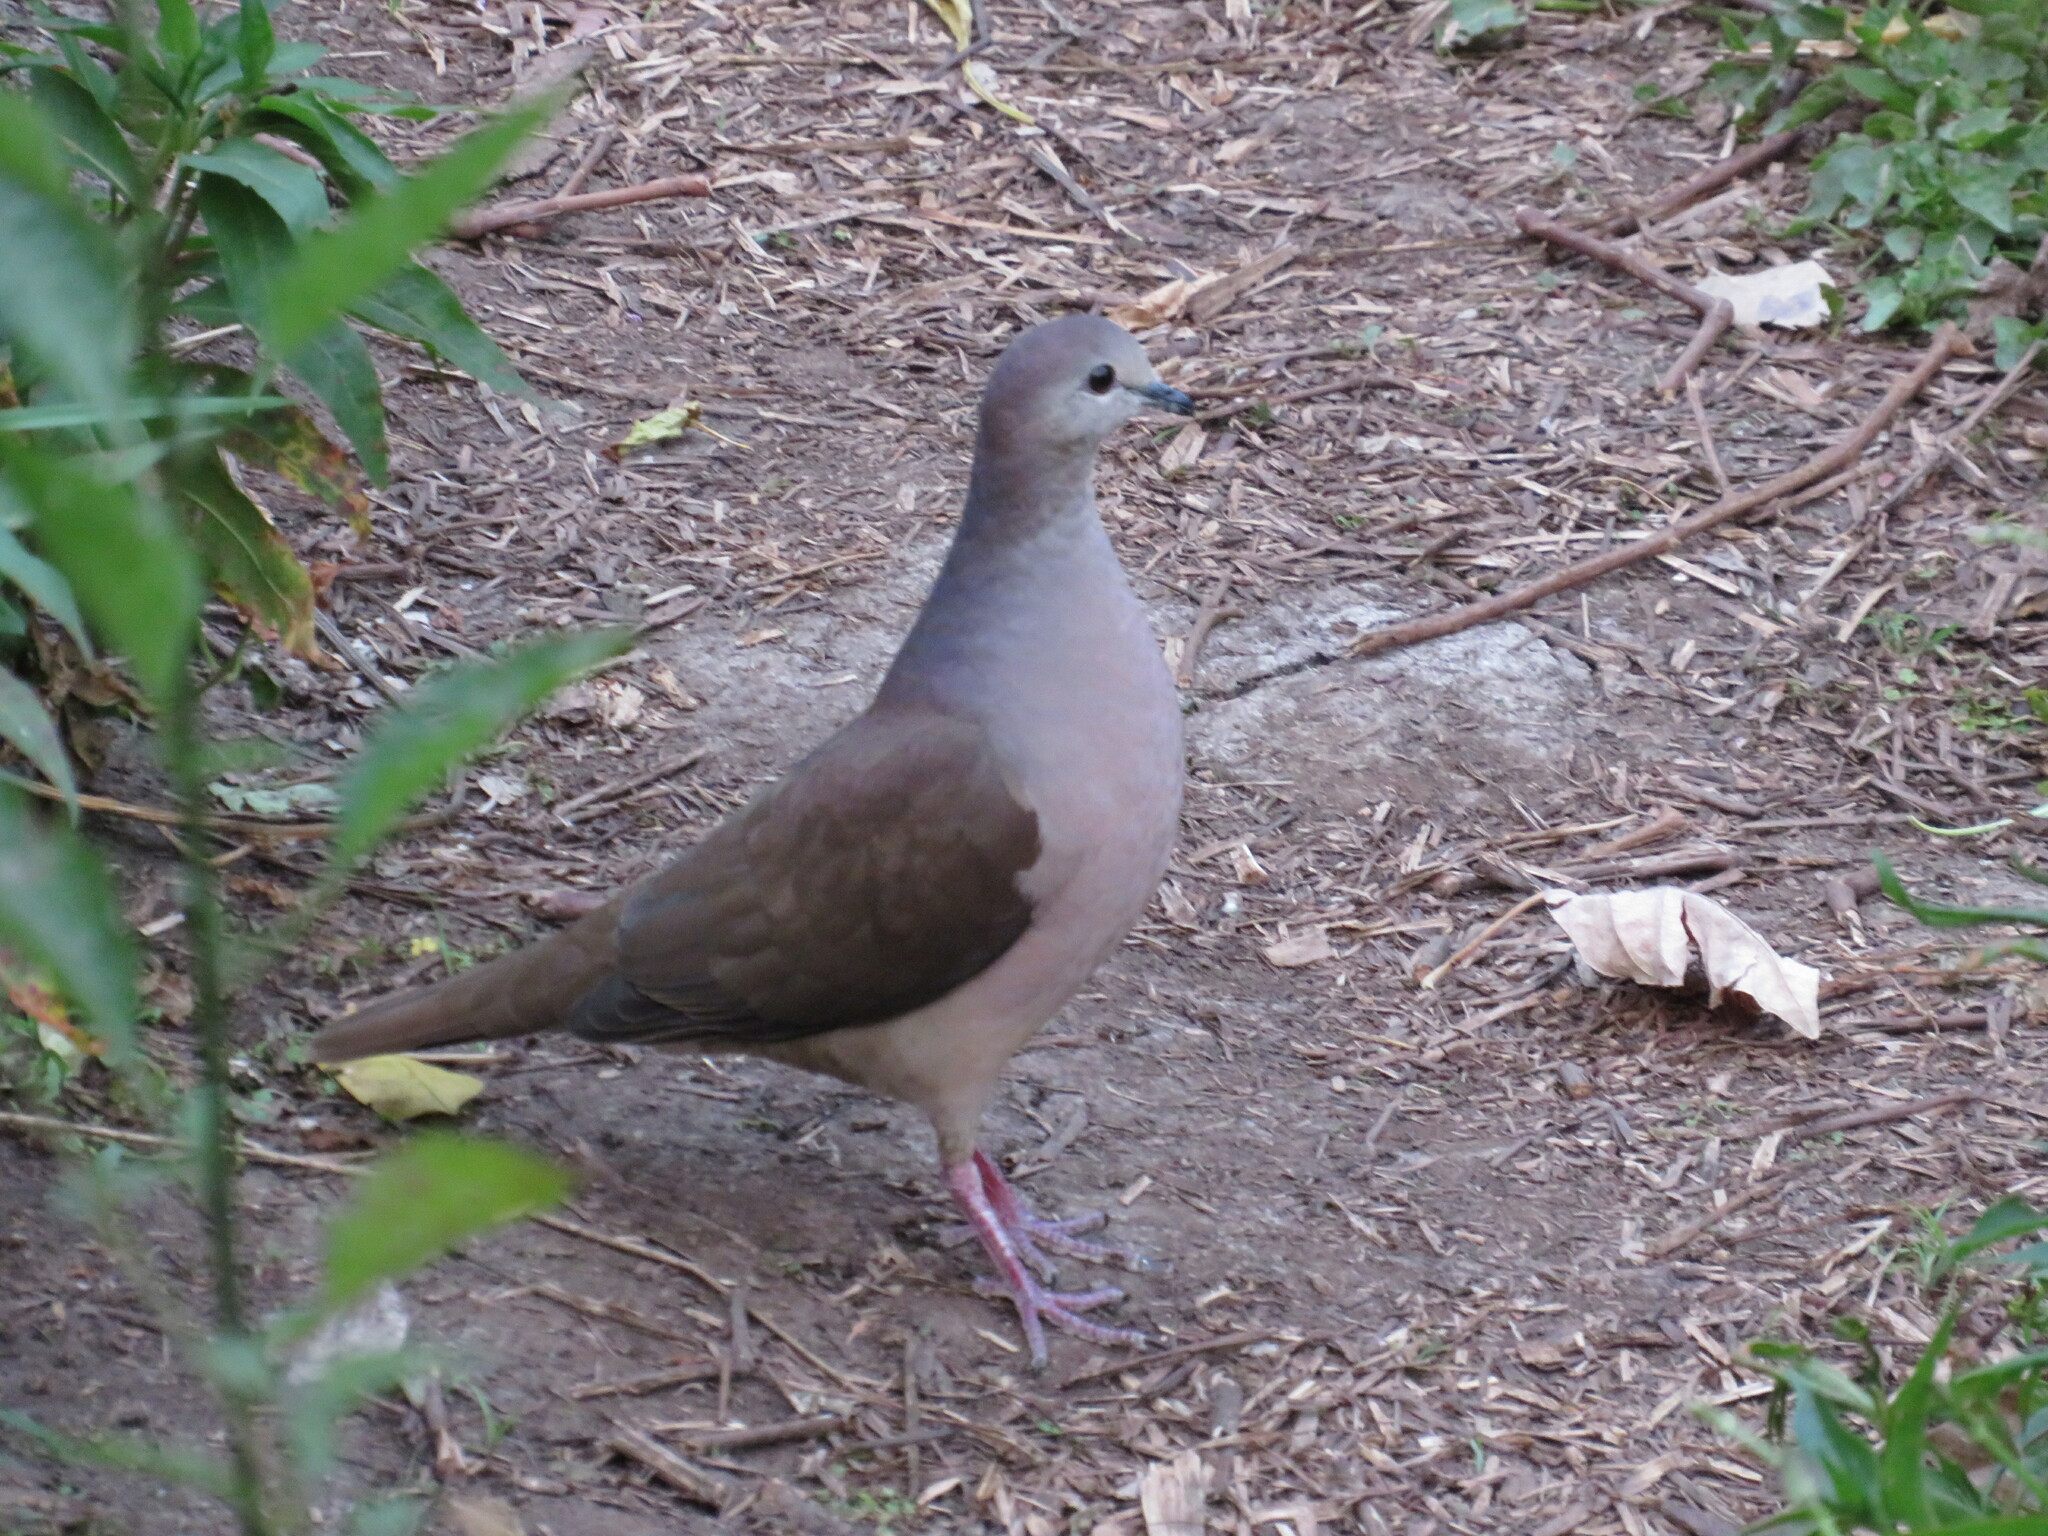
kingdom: Animalia
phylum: Chordata
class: Aves
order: Columbiformes
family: Columbidae
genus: Leptotila
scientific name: Leptotila megalura
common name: Yungas dove
